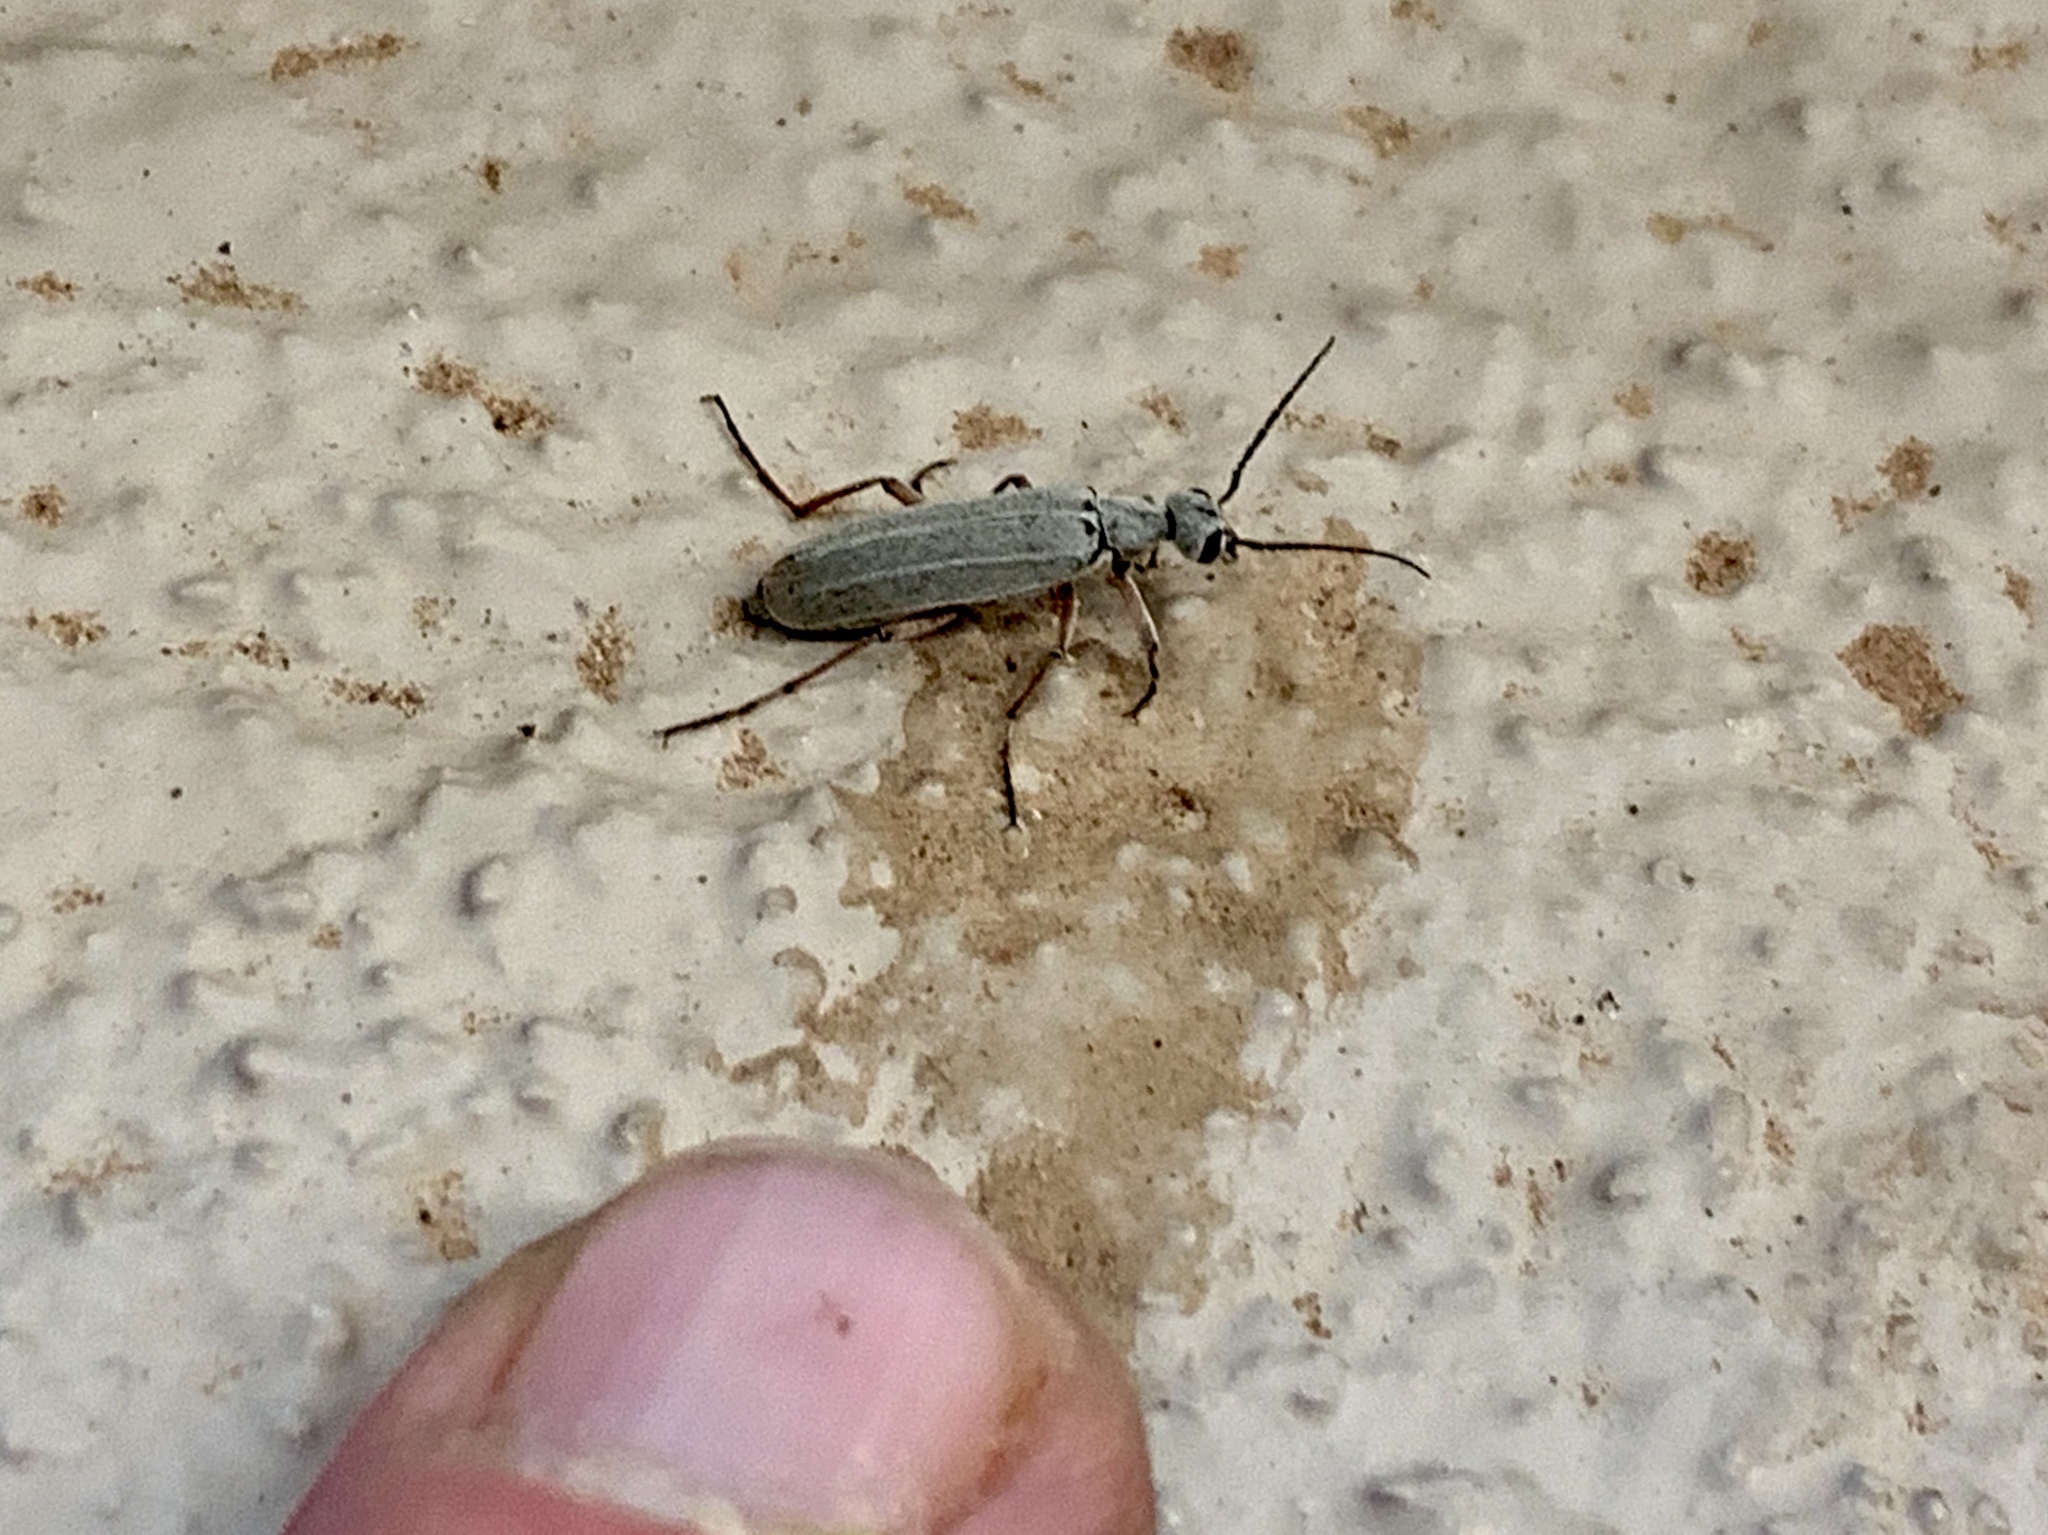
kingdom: Animalia
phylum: Arthropoda
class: Insecta
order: Coleoptera
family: Meloidae
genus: Epicauta
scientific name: Epicauta hirsutipubescens
